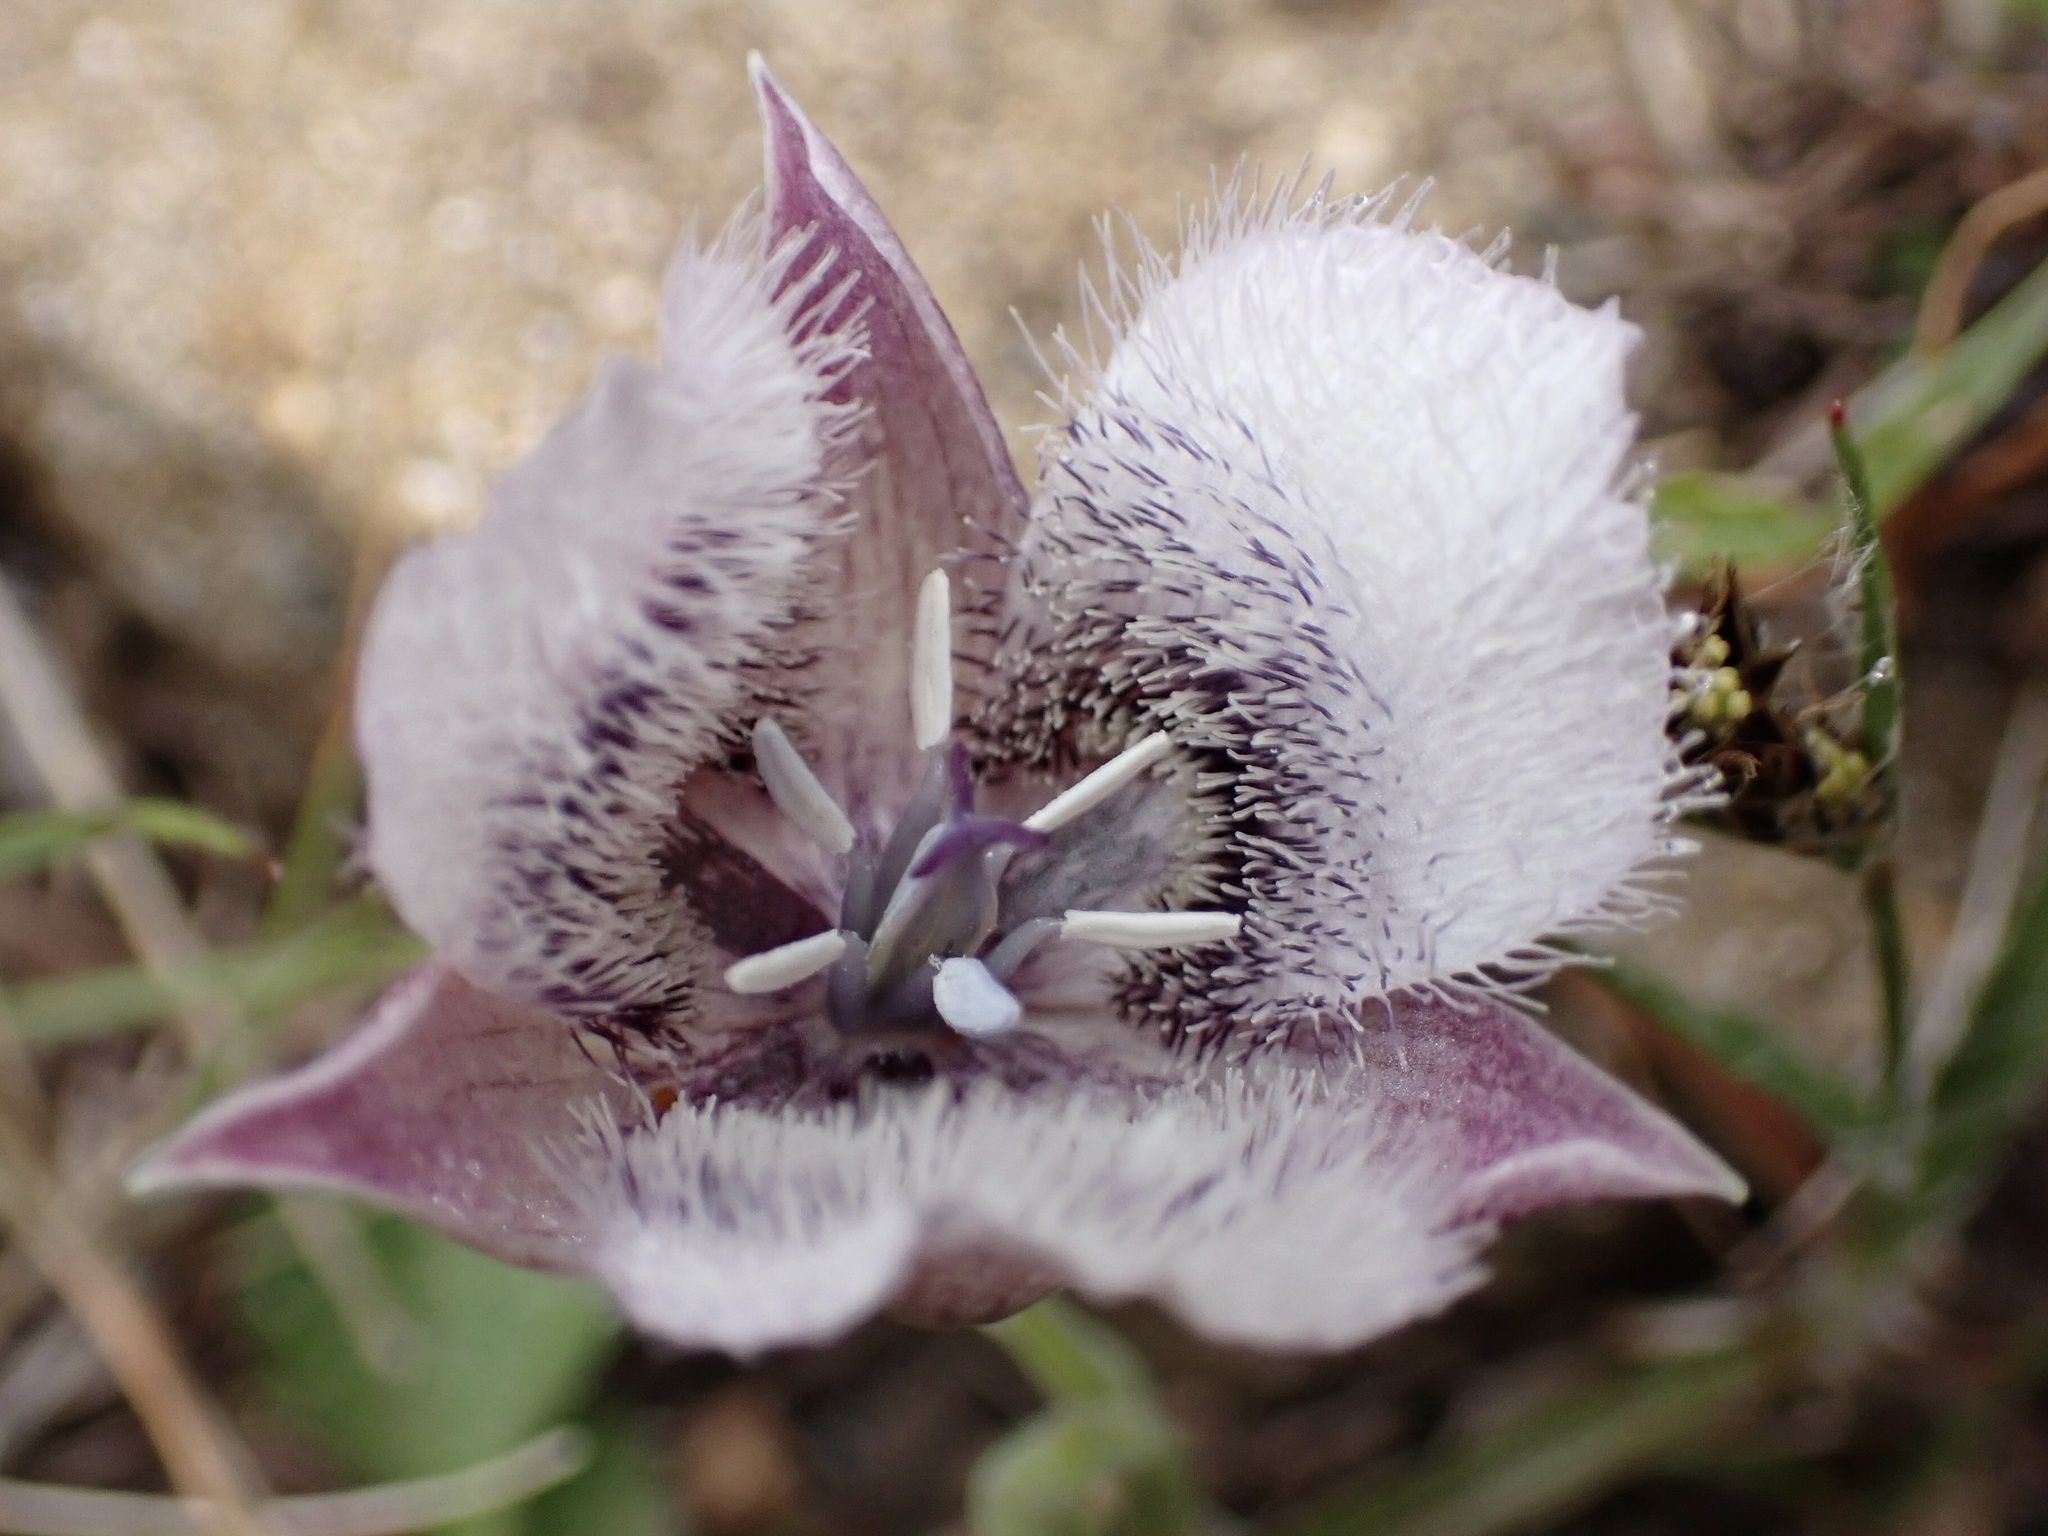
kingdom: Plantae
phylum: Tracheophyta
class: Liliopsida
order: Liliales
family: Liliaceae
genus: Calochortus
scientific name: Calochortus tolmiei
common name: Pussy-ears
